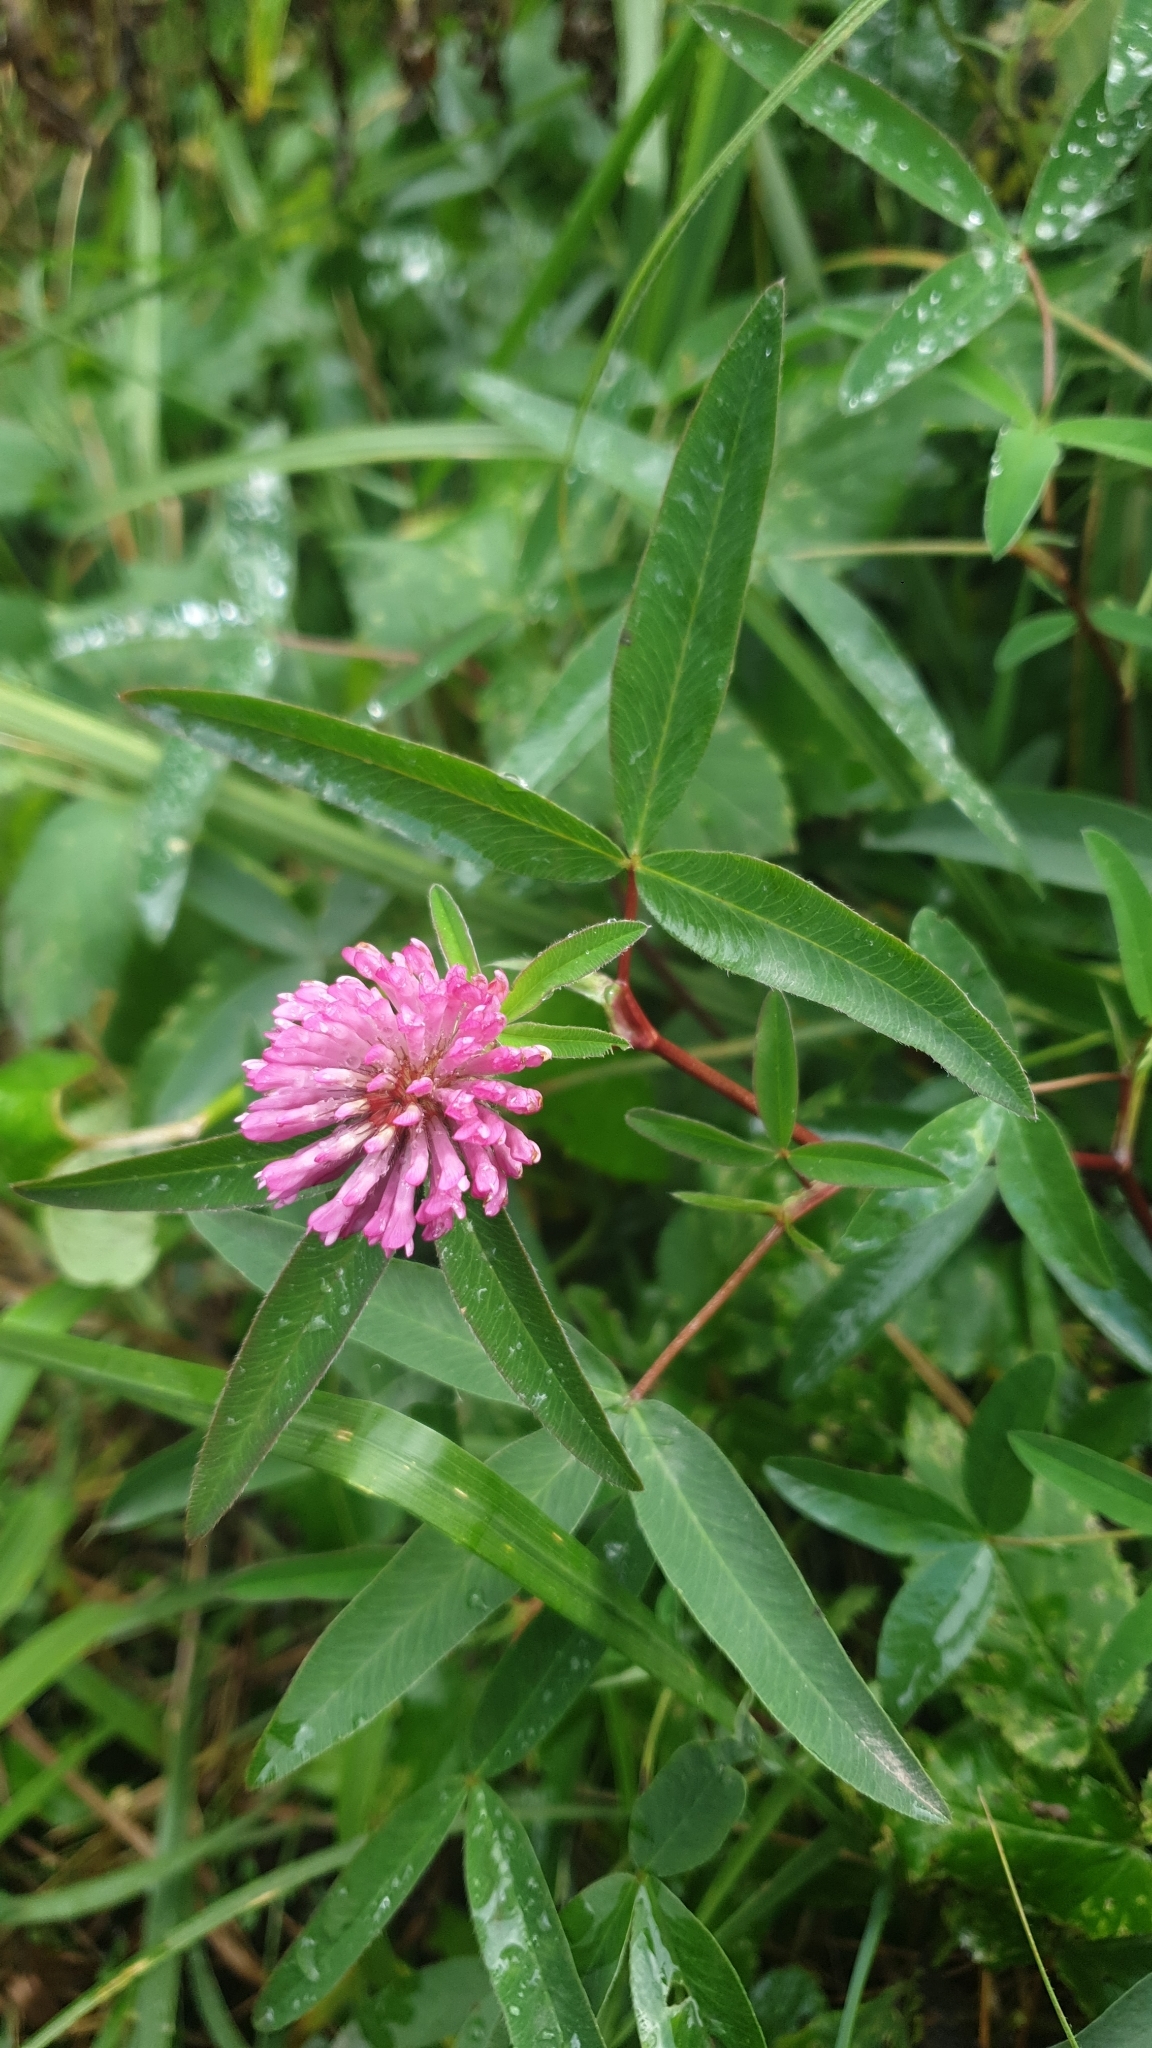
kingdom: Plantae
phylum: Tracheophyta
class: Magnoliopsida
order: Fabales
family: Fabaceae
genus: Trifolium
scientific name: Trifolium medium
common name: Zigzag clover
